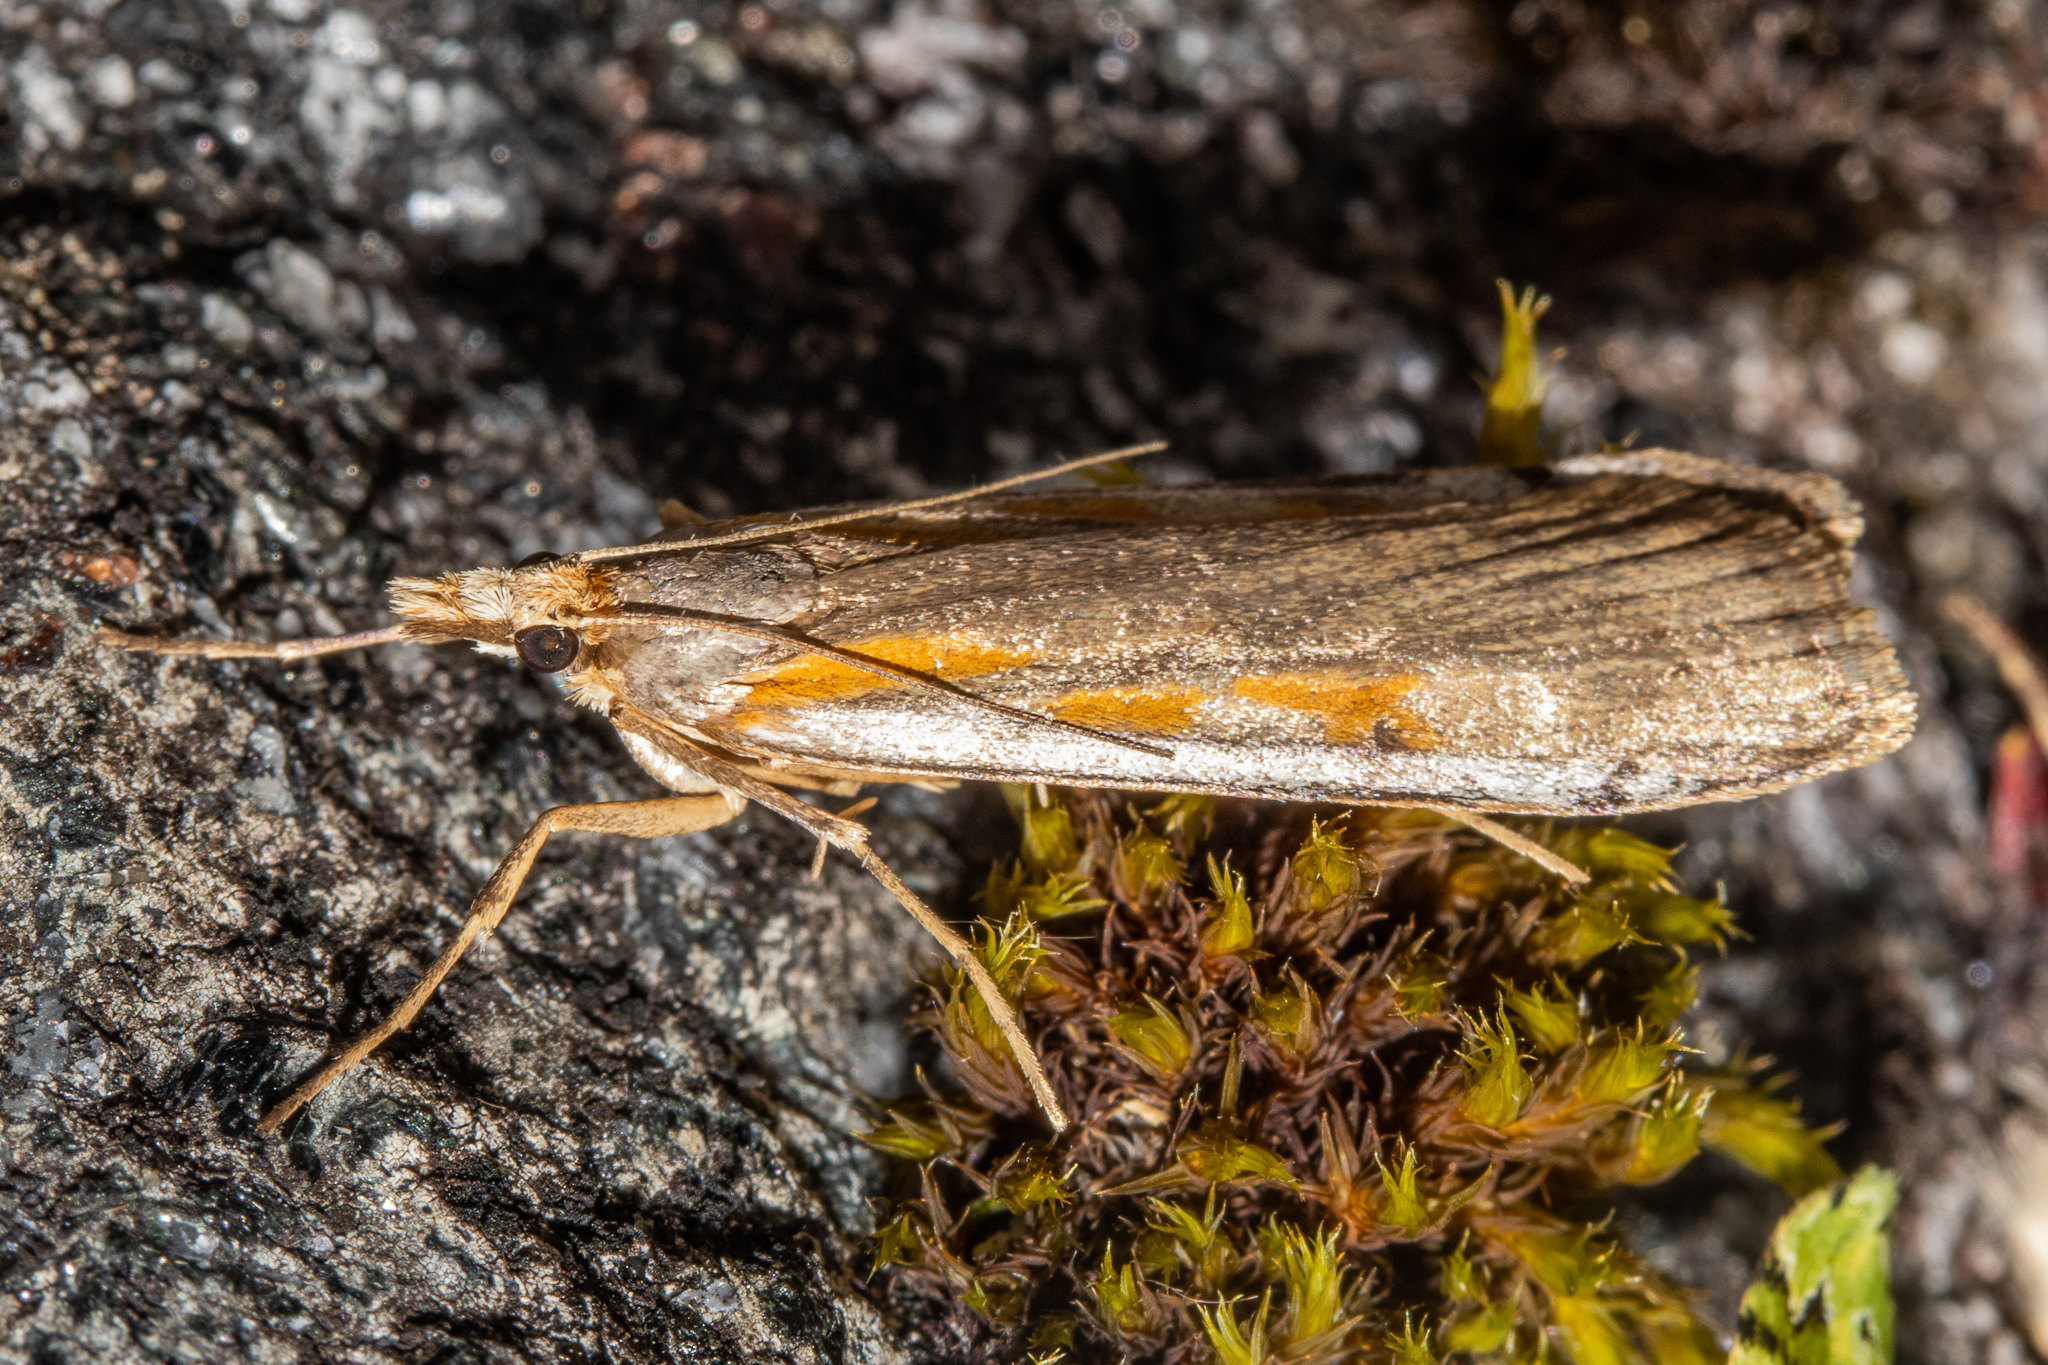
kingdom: Animalia
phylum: Arthropoda
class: Insecta
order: Lepidoptera
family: Crambidae
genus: Scoparia
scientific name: Scoparia scripta
